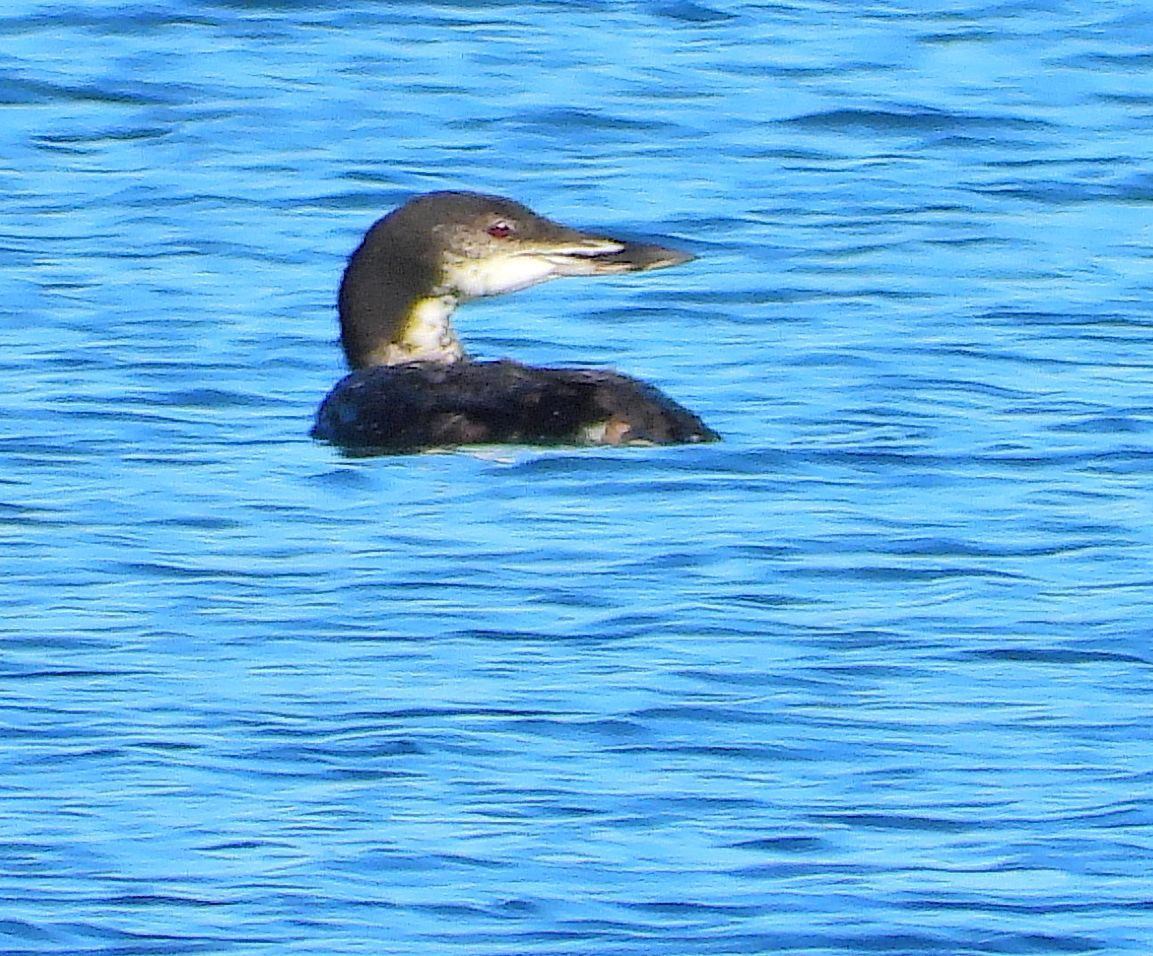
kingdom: Animalia
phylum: Chordata
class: Aves
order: Gaviiformes
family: Gaviidae
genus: Gavia
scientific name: Gavia immer
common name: Common loon
